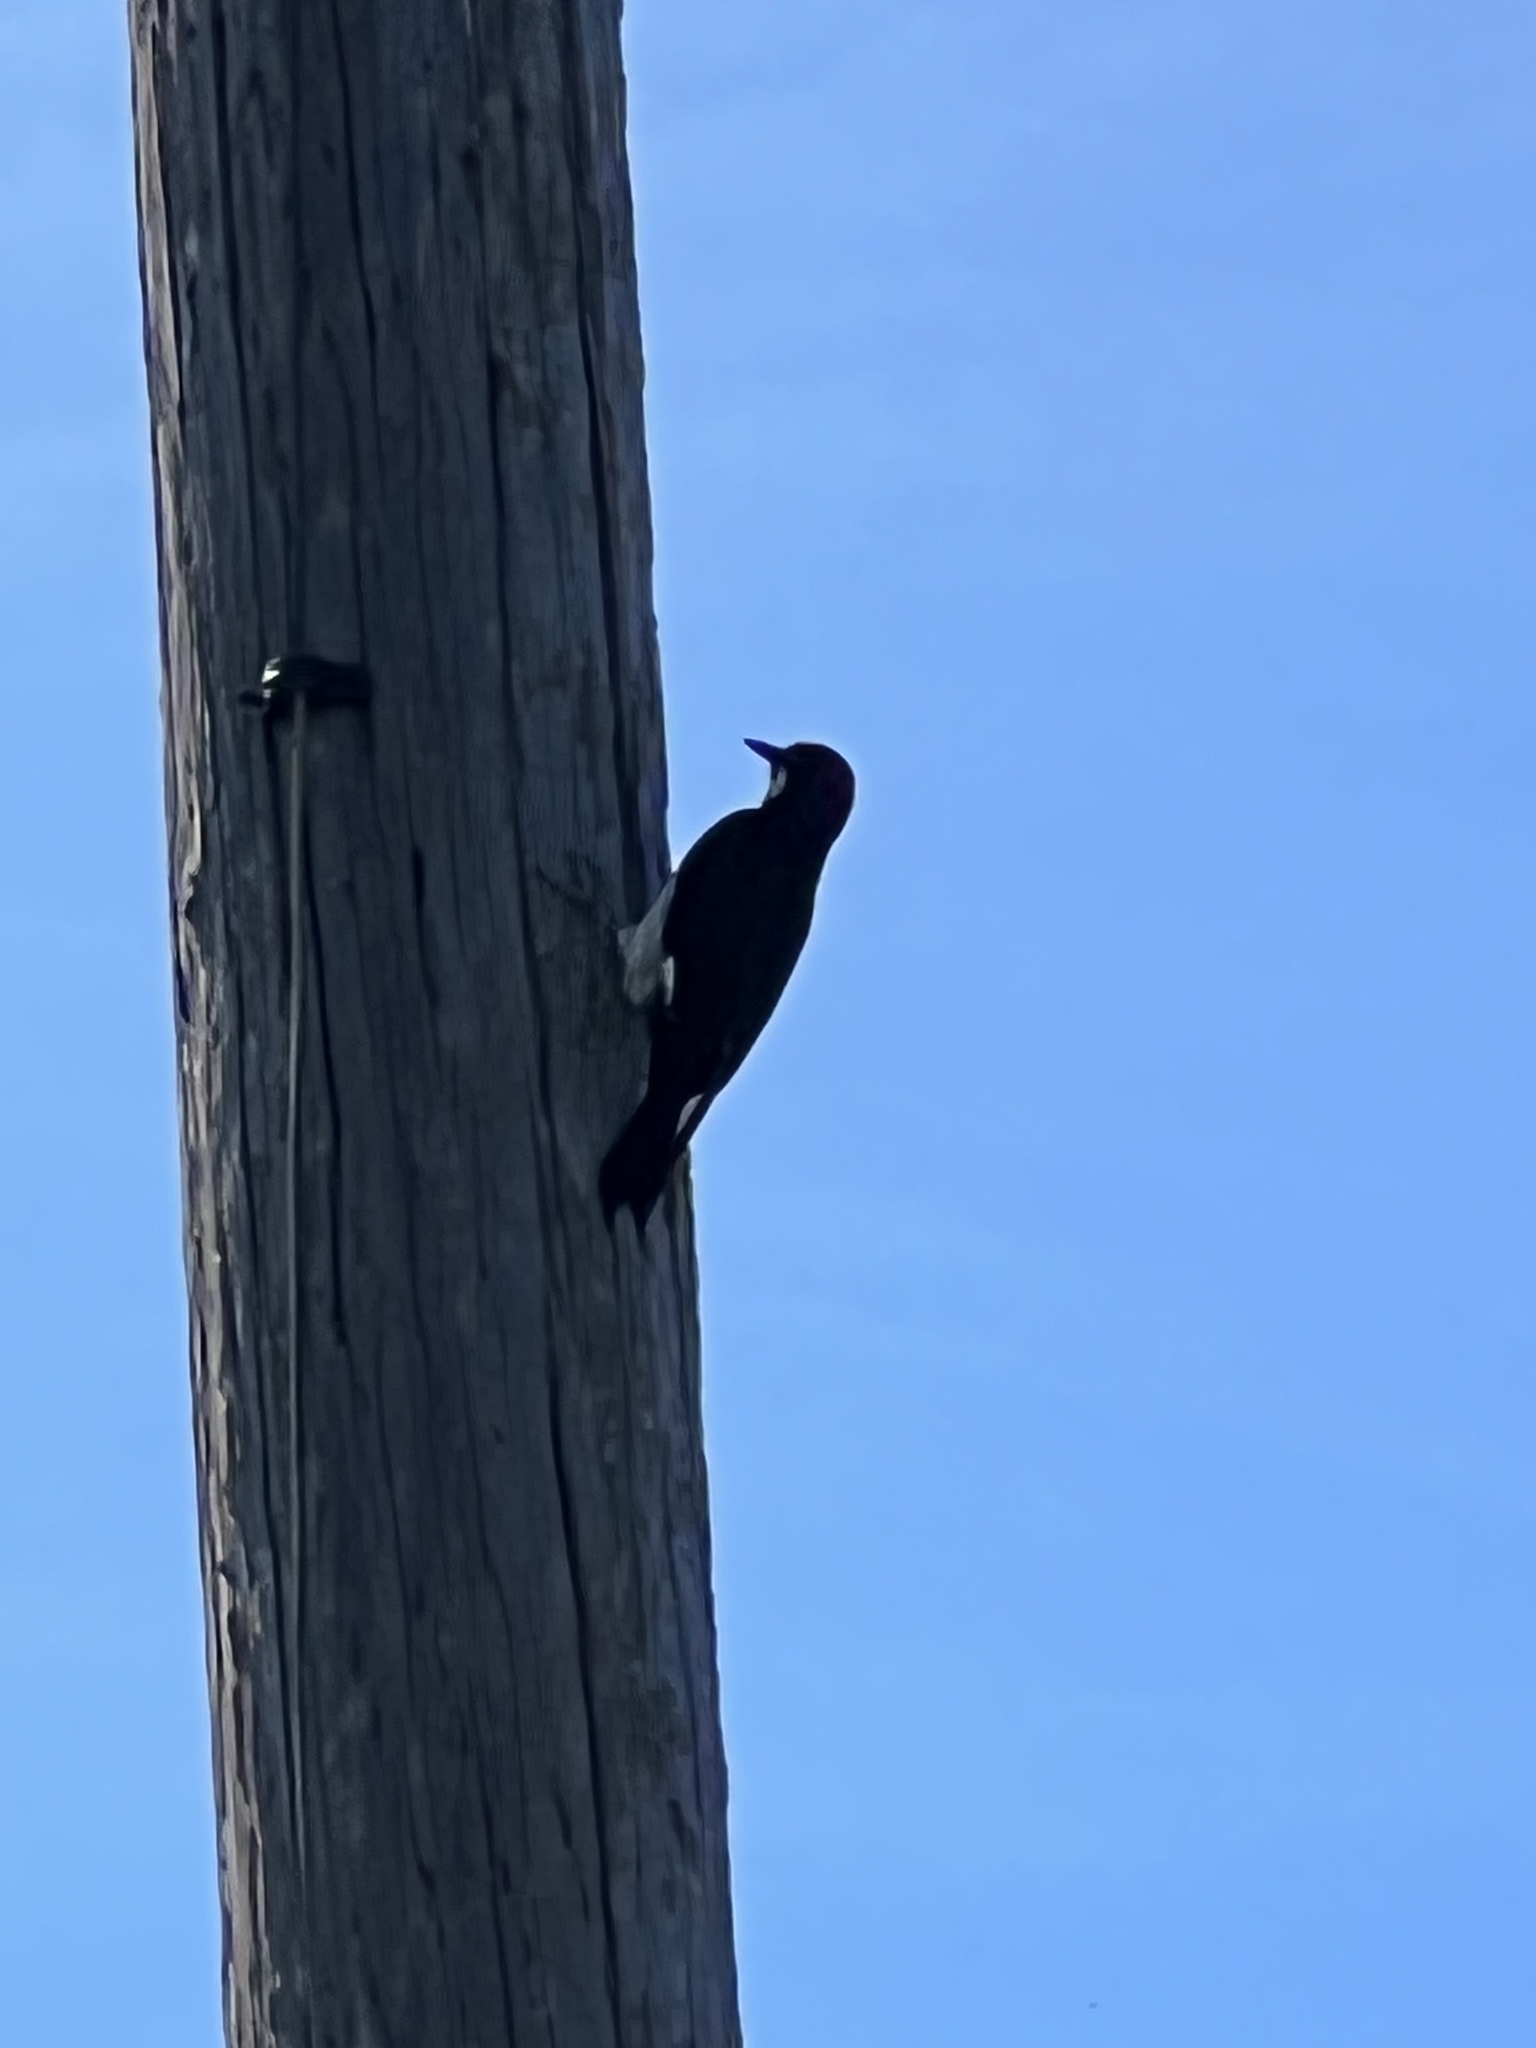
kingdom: Animalia
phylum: Chordata
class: Aves
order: Piciformes
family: Picidae
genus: Melanerpes
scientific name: Melanerpes formicivorus
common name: Acorn woodpecker
